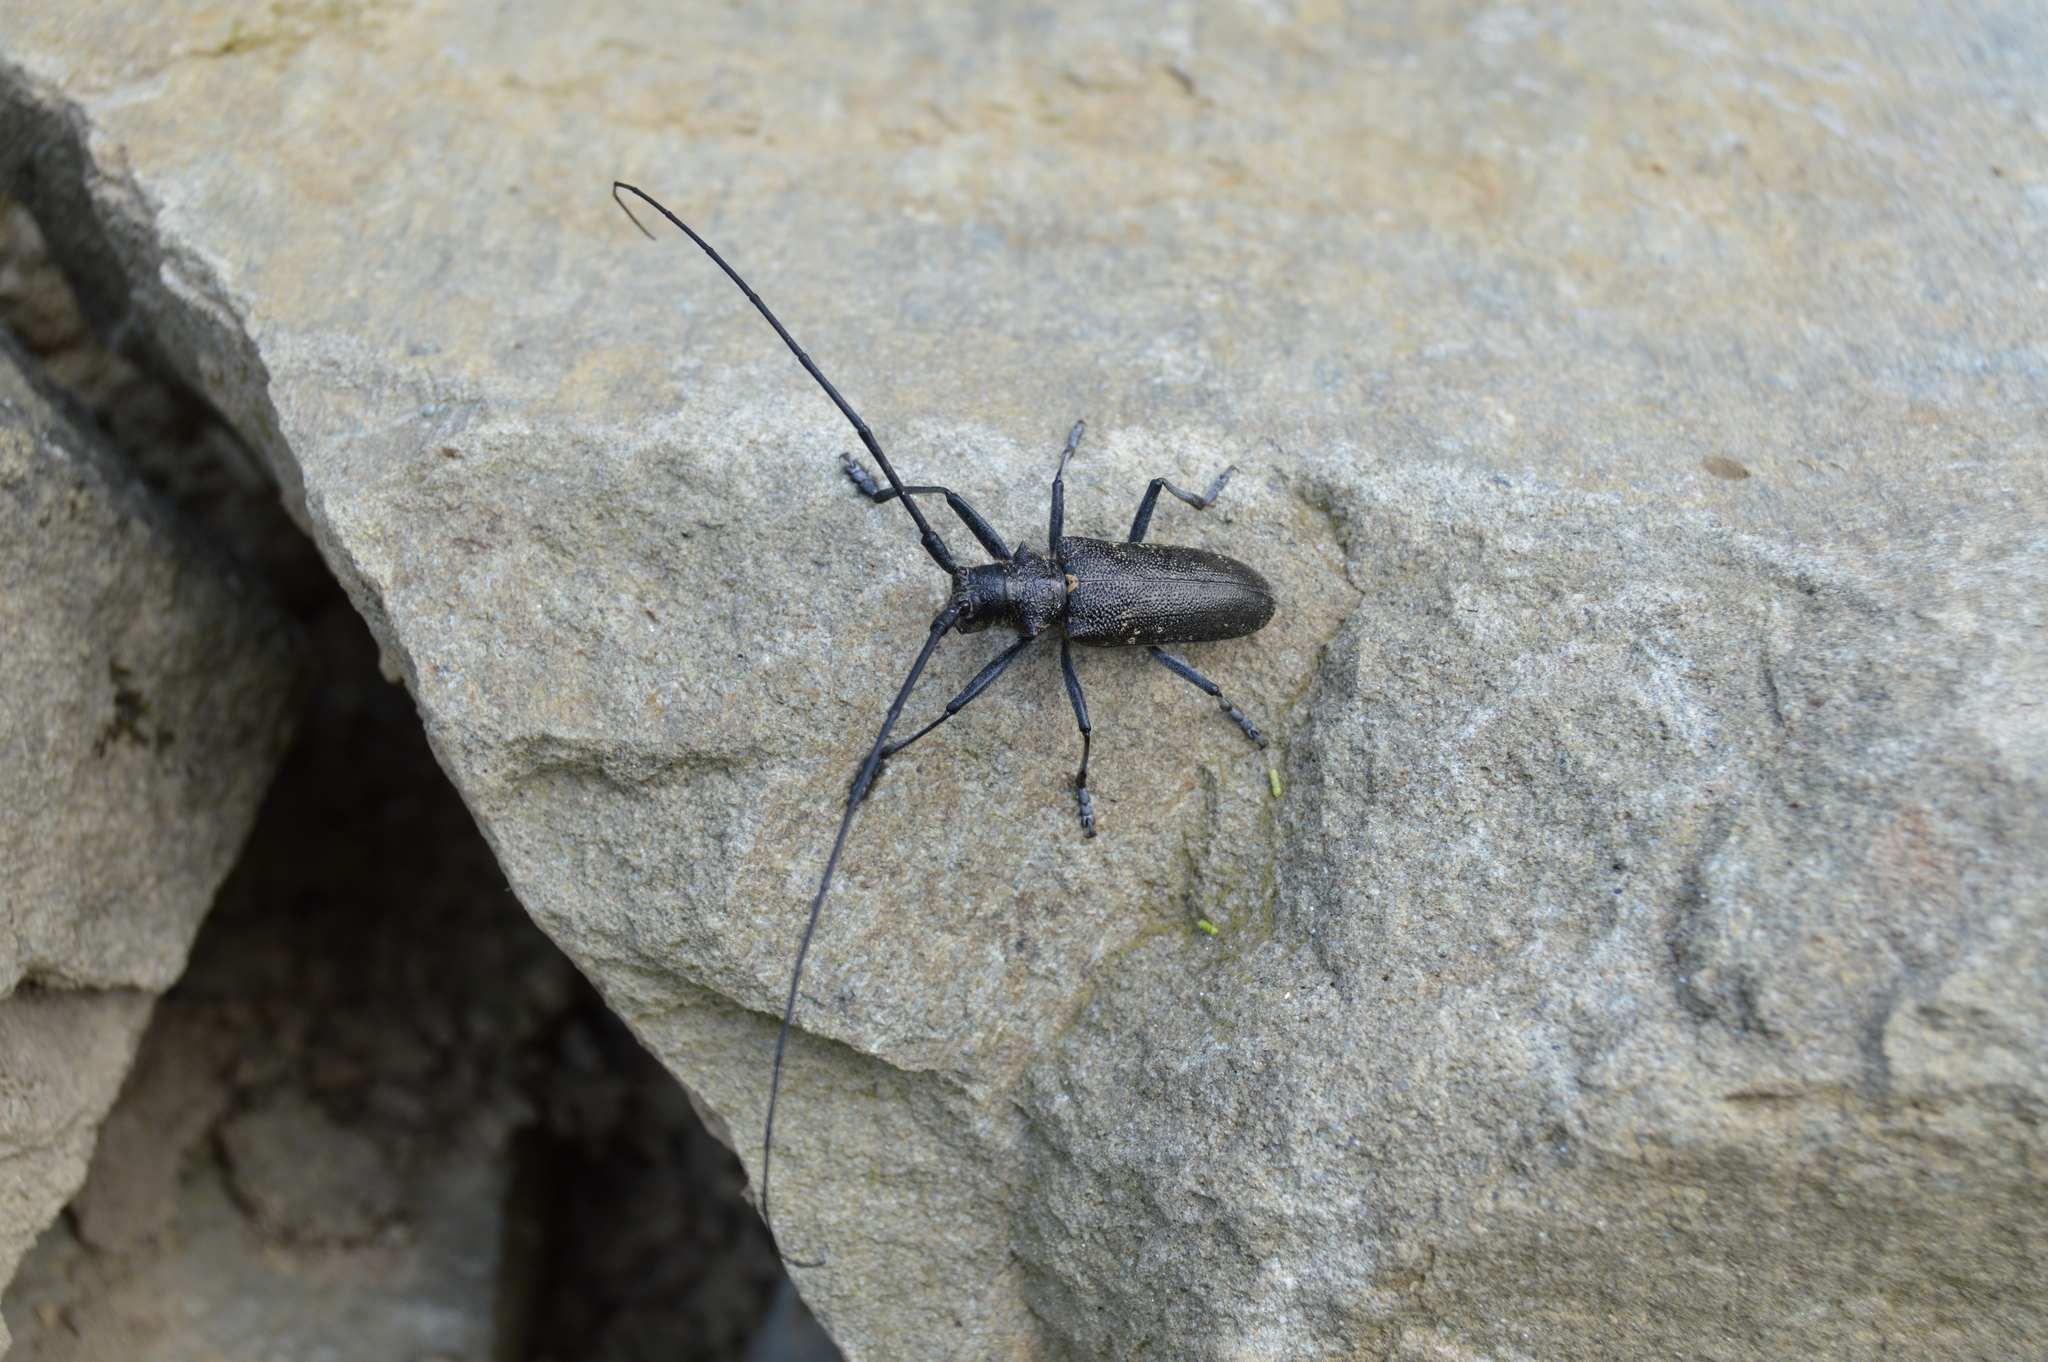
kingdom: Animalia
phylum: Arthropoda
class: Insecta
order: Coleoptera
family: Cerambycidae
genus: Monochamus
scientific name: Monochamus sutor
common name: Pine sawyer
